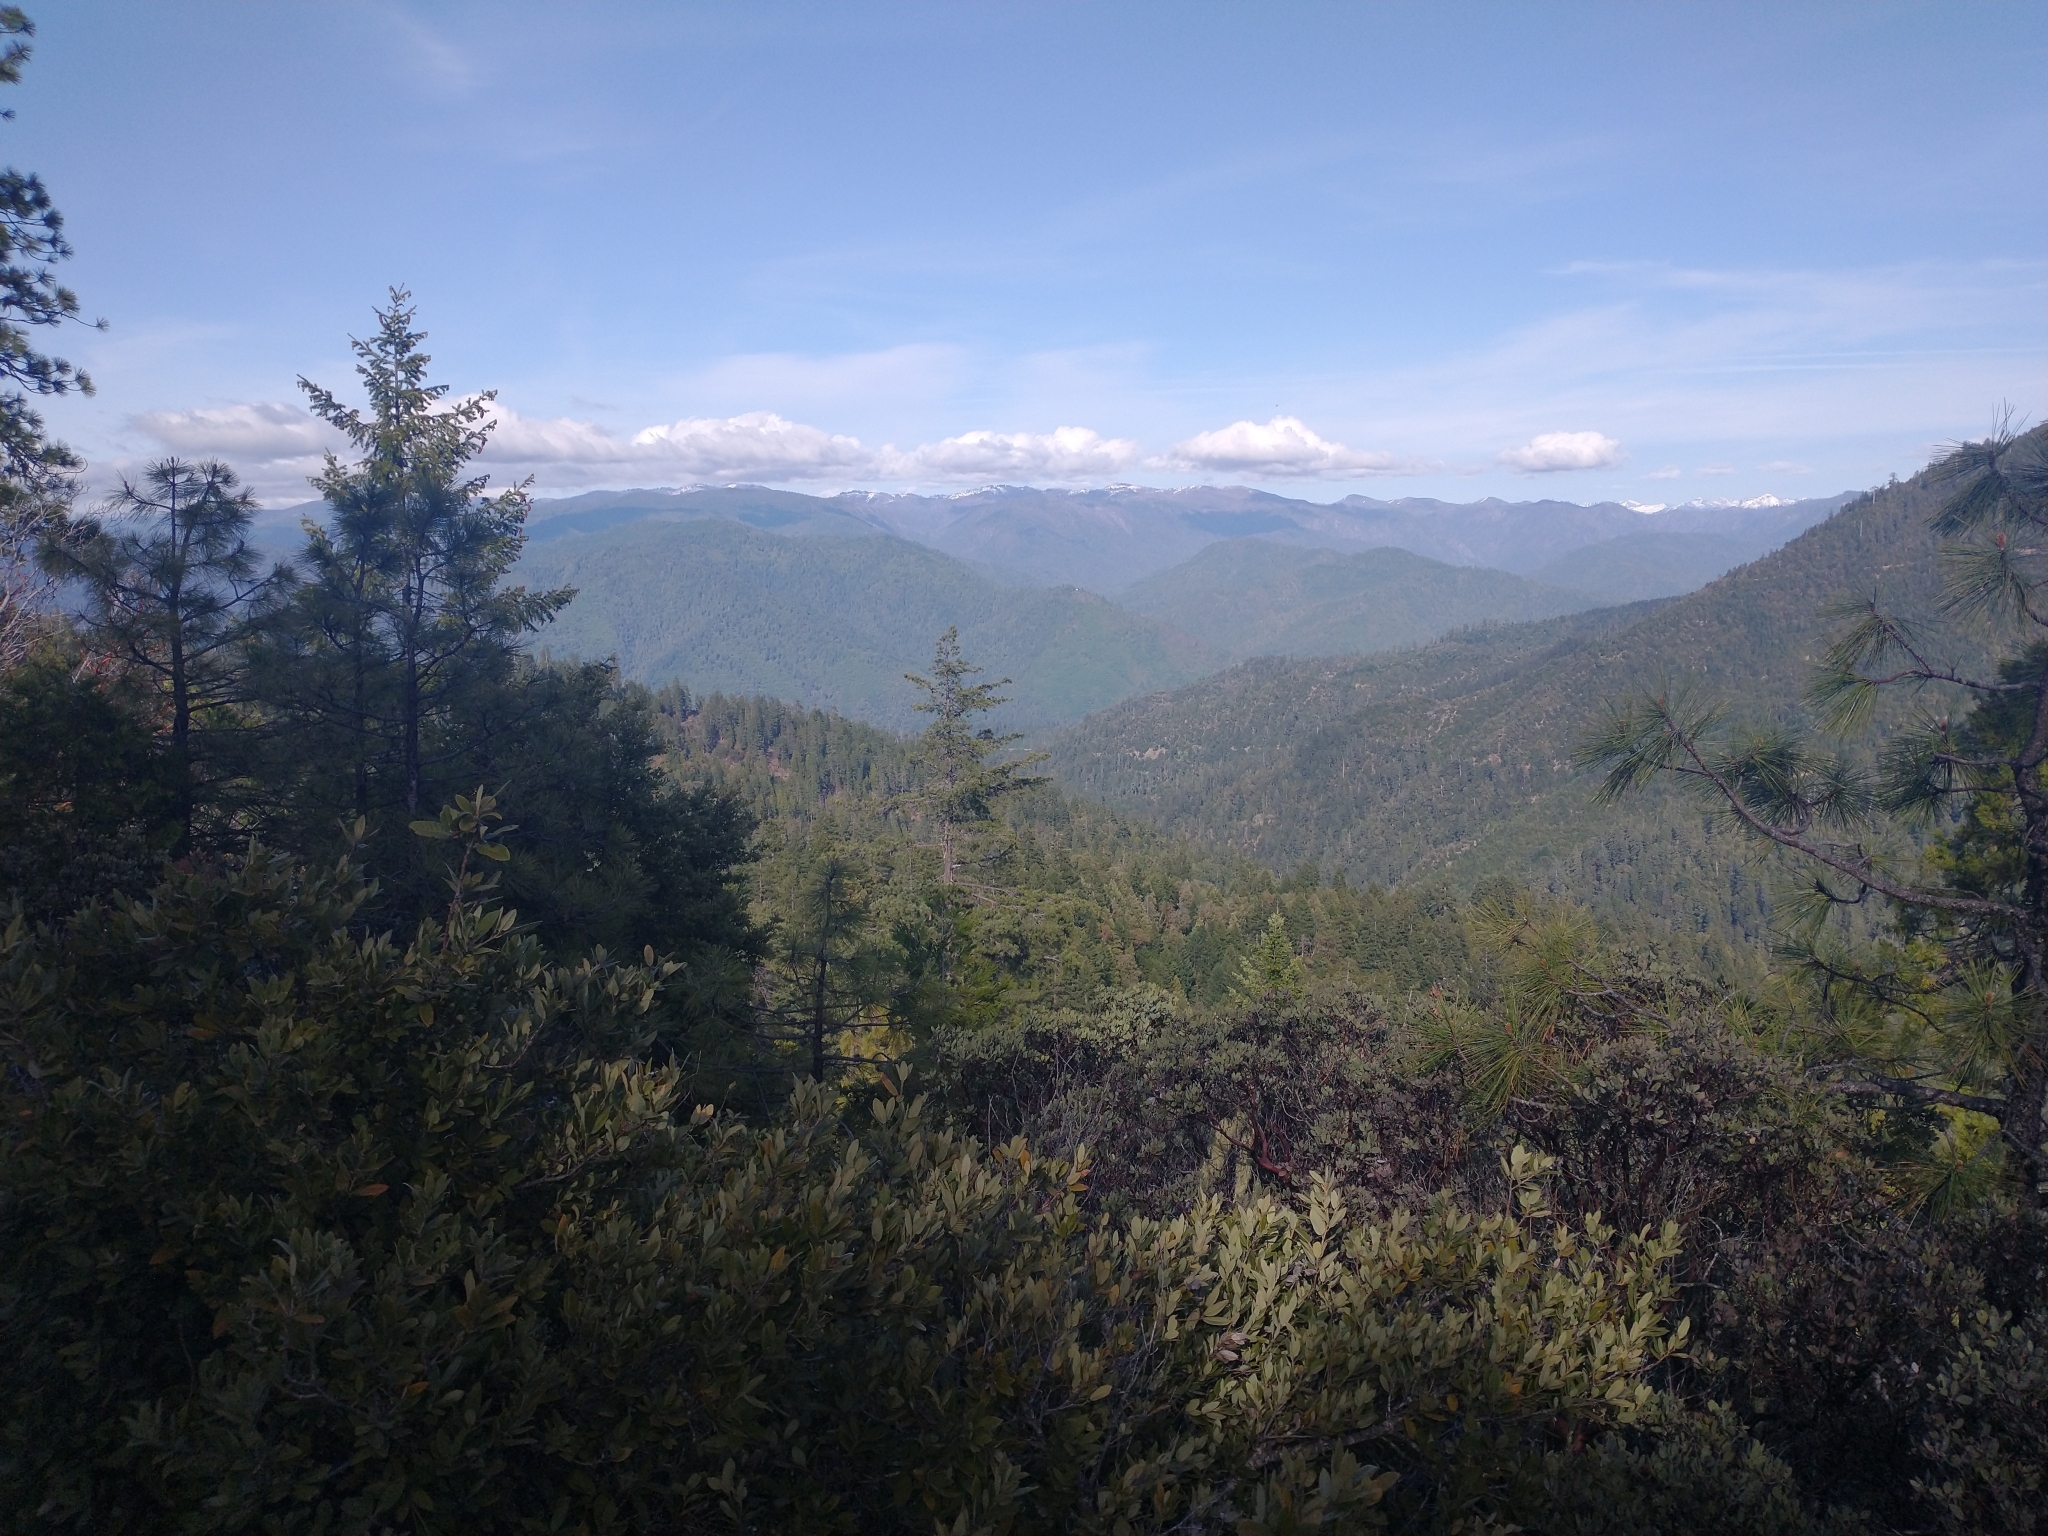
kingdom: Plantae
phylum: Tracheophyta
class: Pinopsida
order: Pinales
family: Pinaceae
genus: Pseudotsuga
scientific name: Pseudotsuga menziesii
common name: Douglas fir
